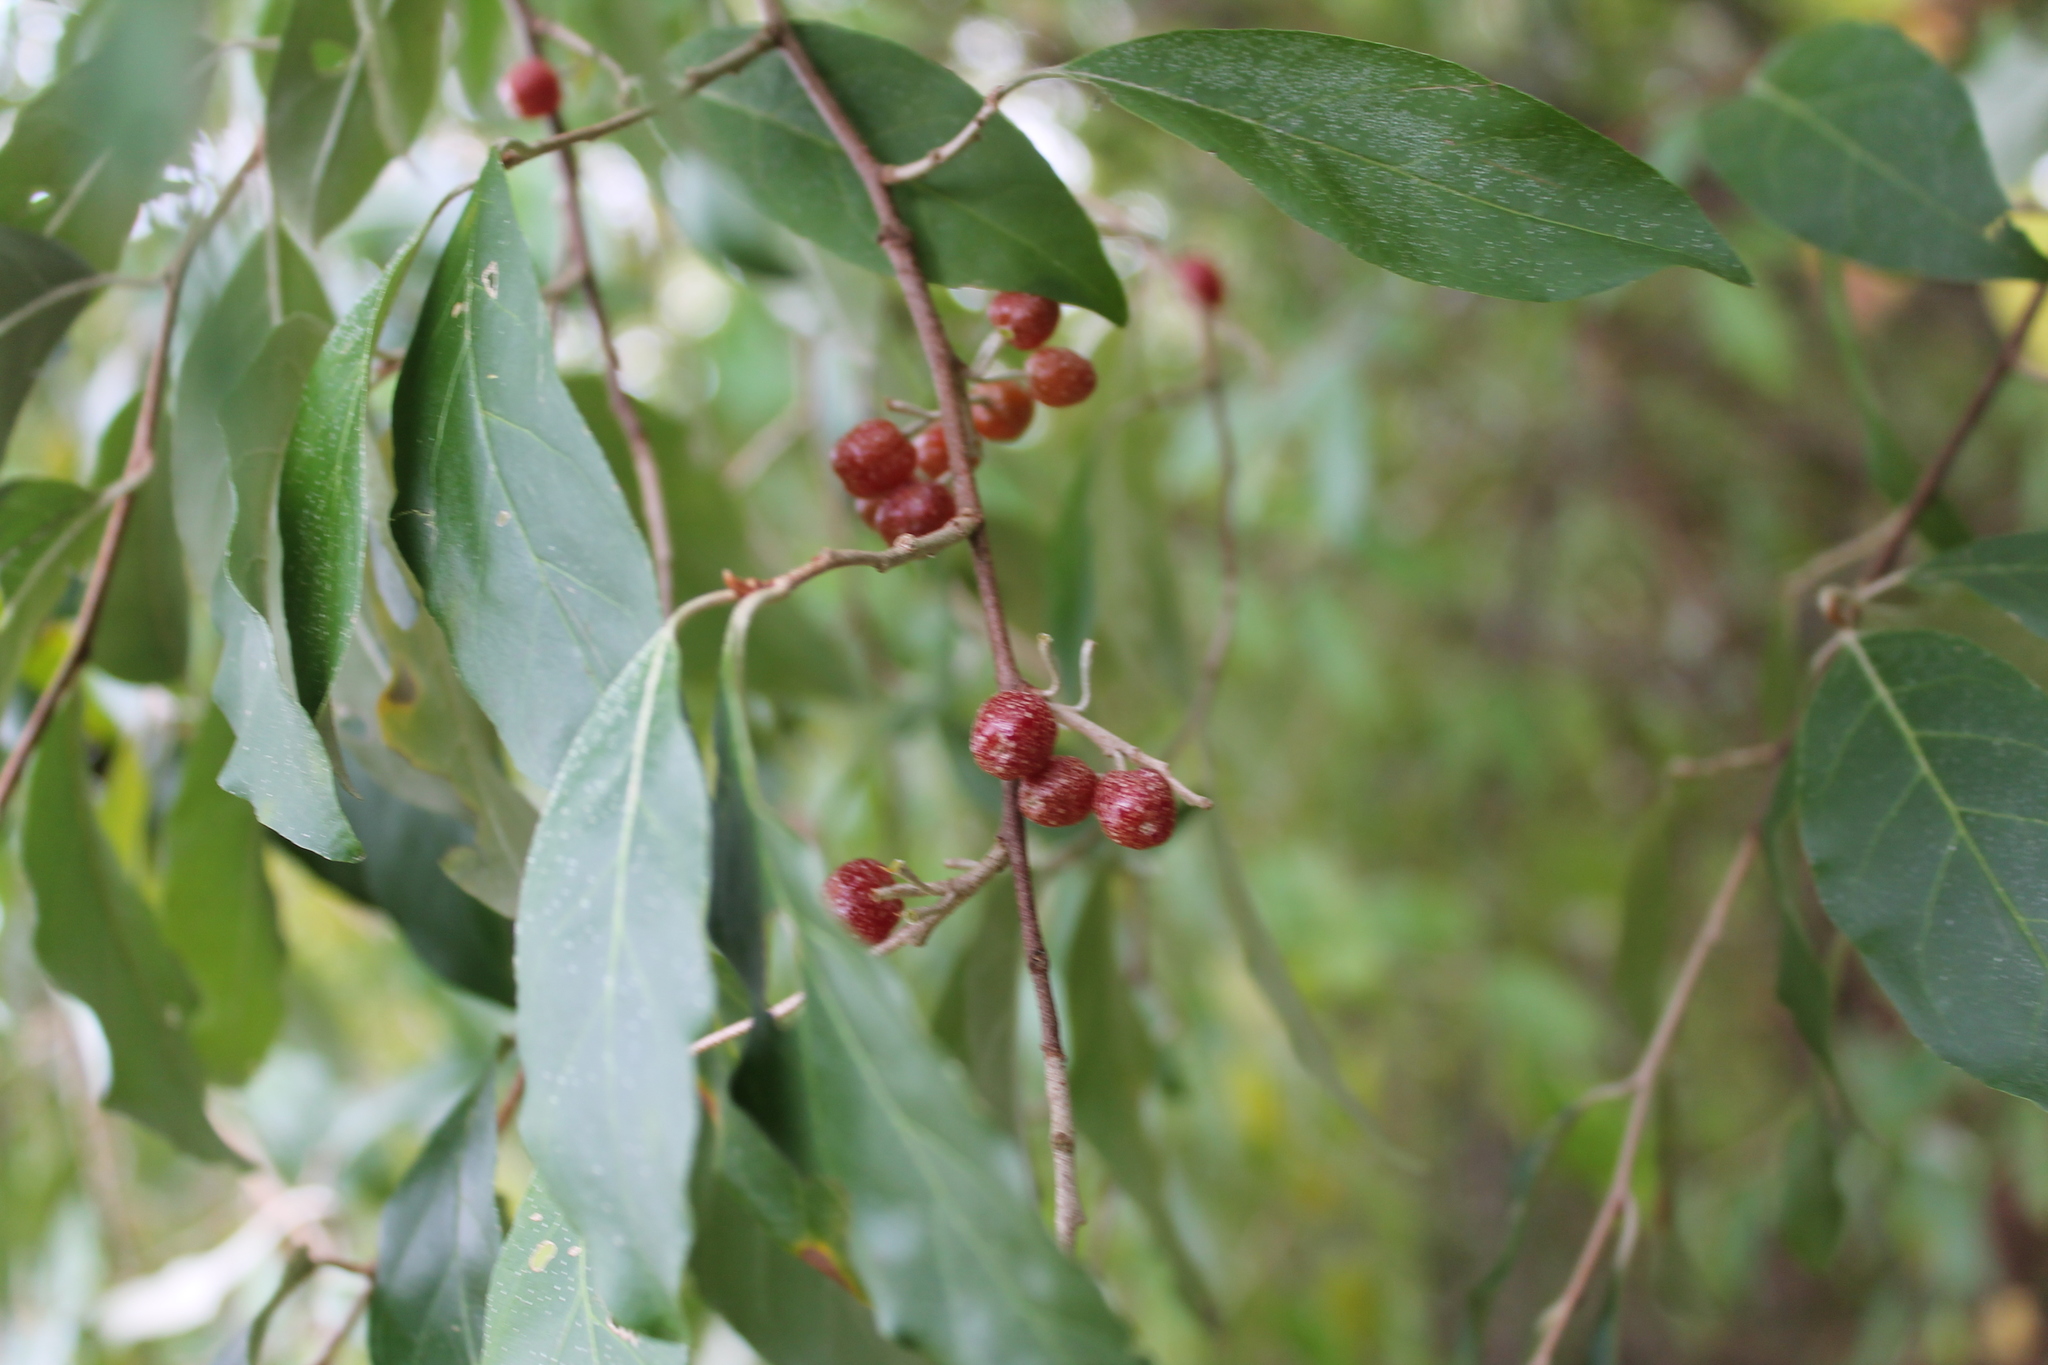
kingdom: Plantae
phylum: Tracheophyta
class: Magnoliopsida
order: Rosales
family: Elaeagnaceae
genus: Elaeagnus
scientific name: Elaeagnus umbellata
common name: Autumn olive
